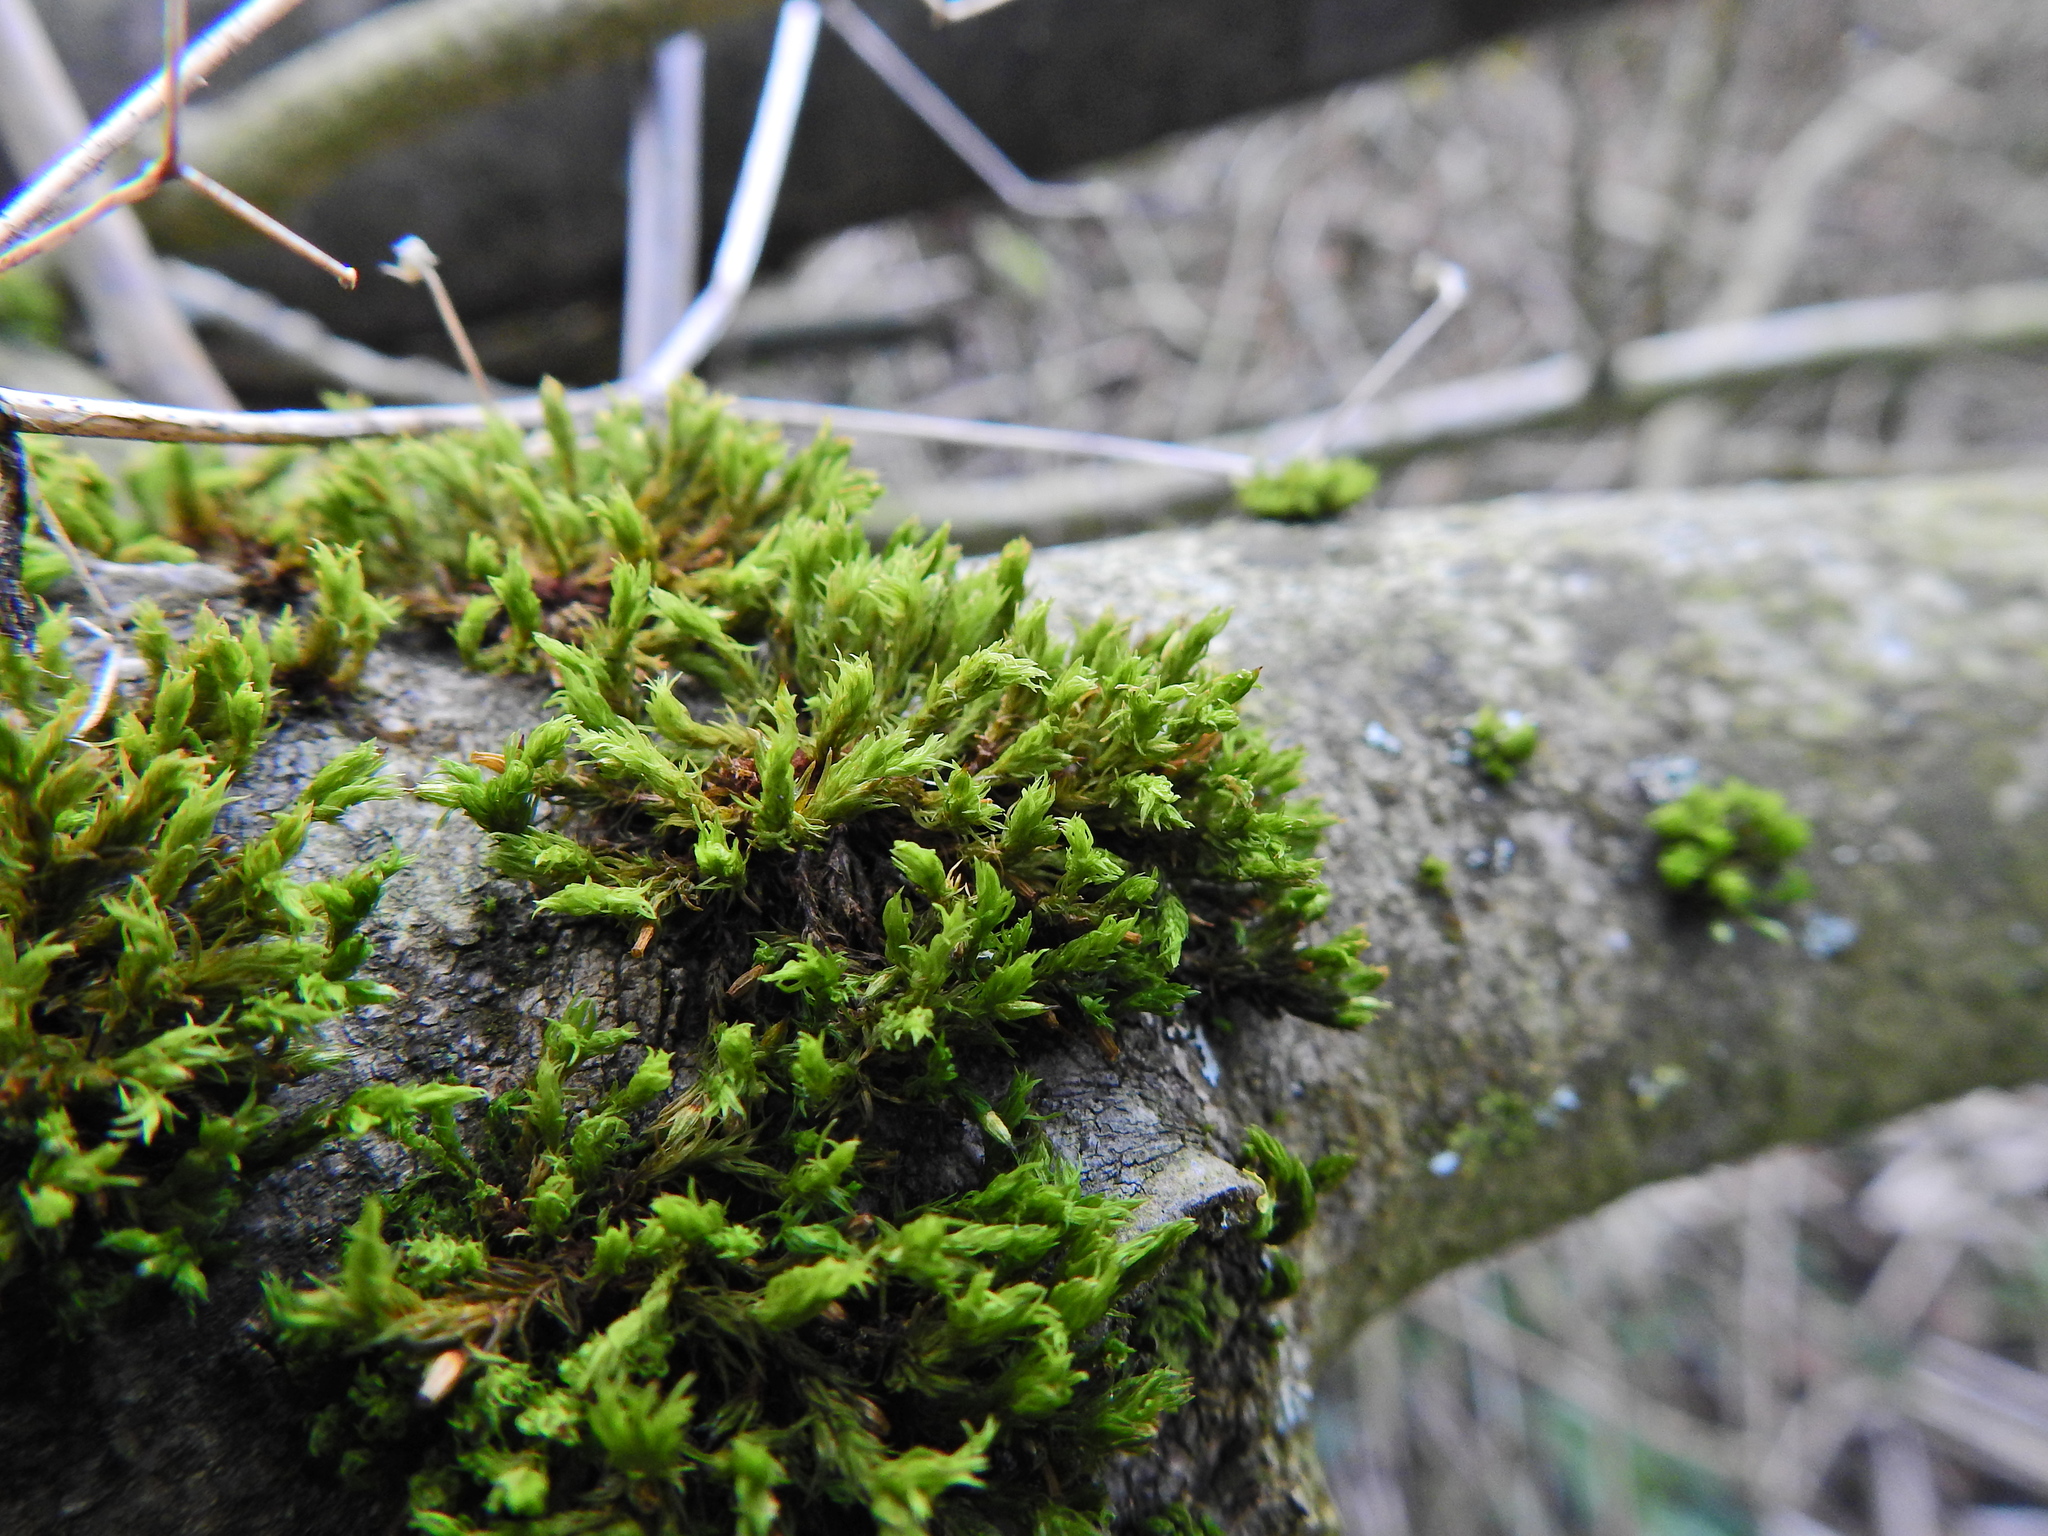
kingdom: Plantae
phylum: Bryophyta
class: Bryopsida
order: Orthotrichales
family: Orthotrichaceae
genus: Lewinskya
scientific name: Lewinskya affinis
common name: Wood bristle-moss
